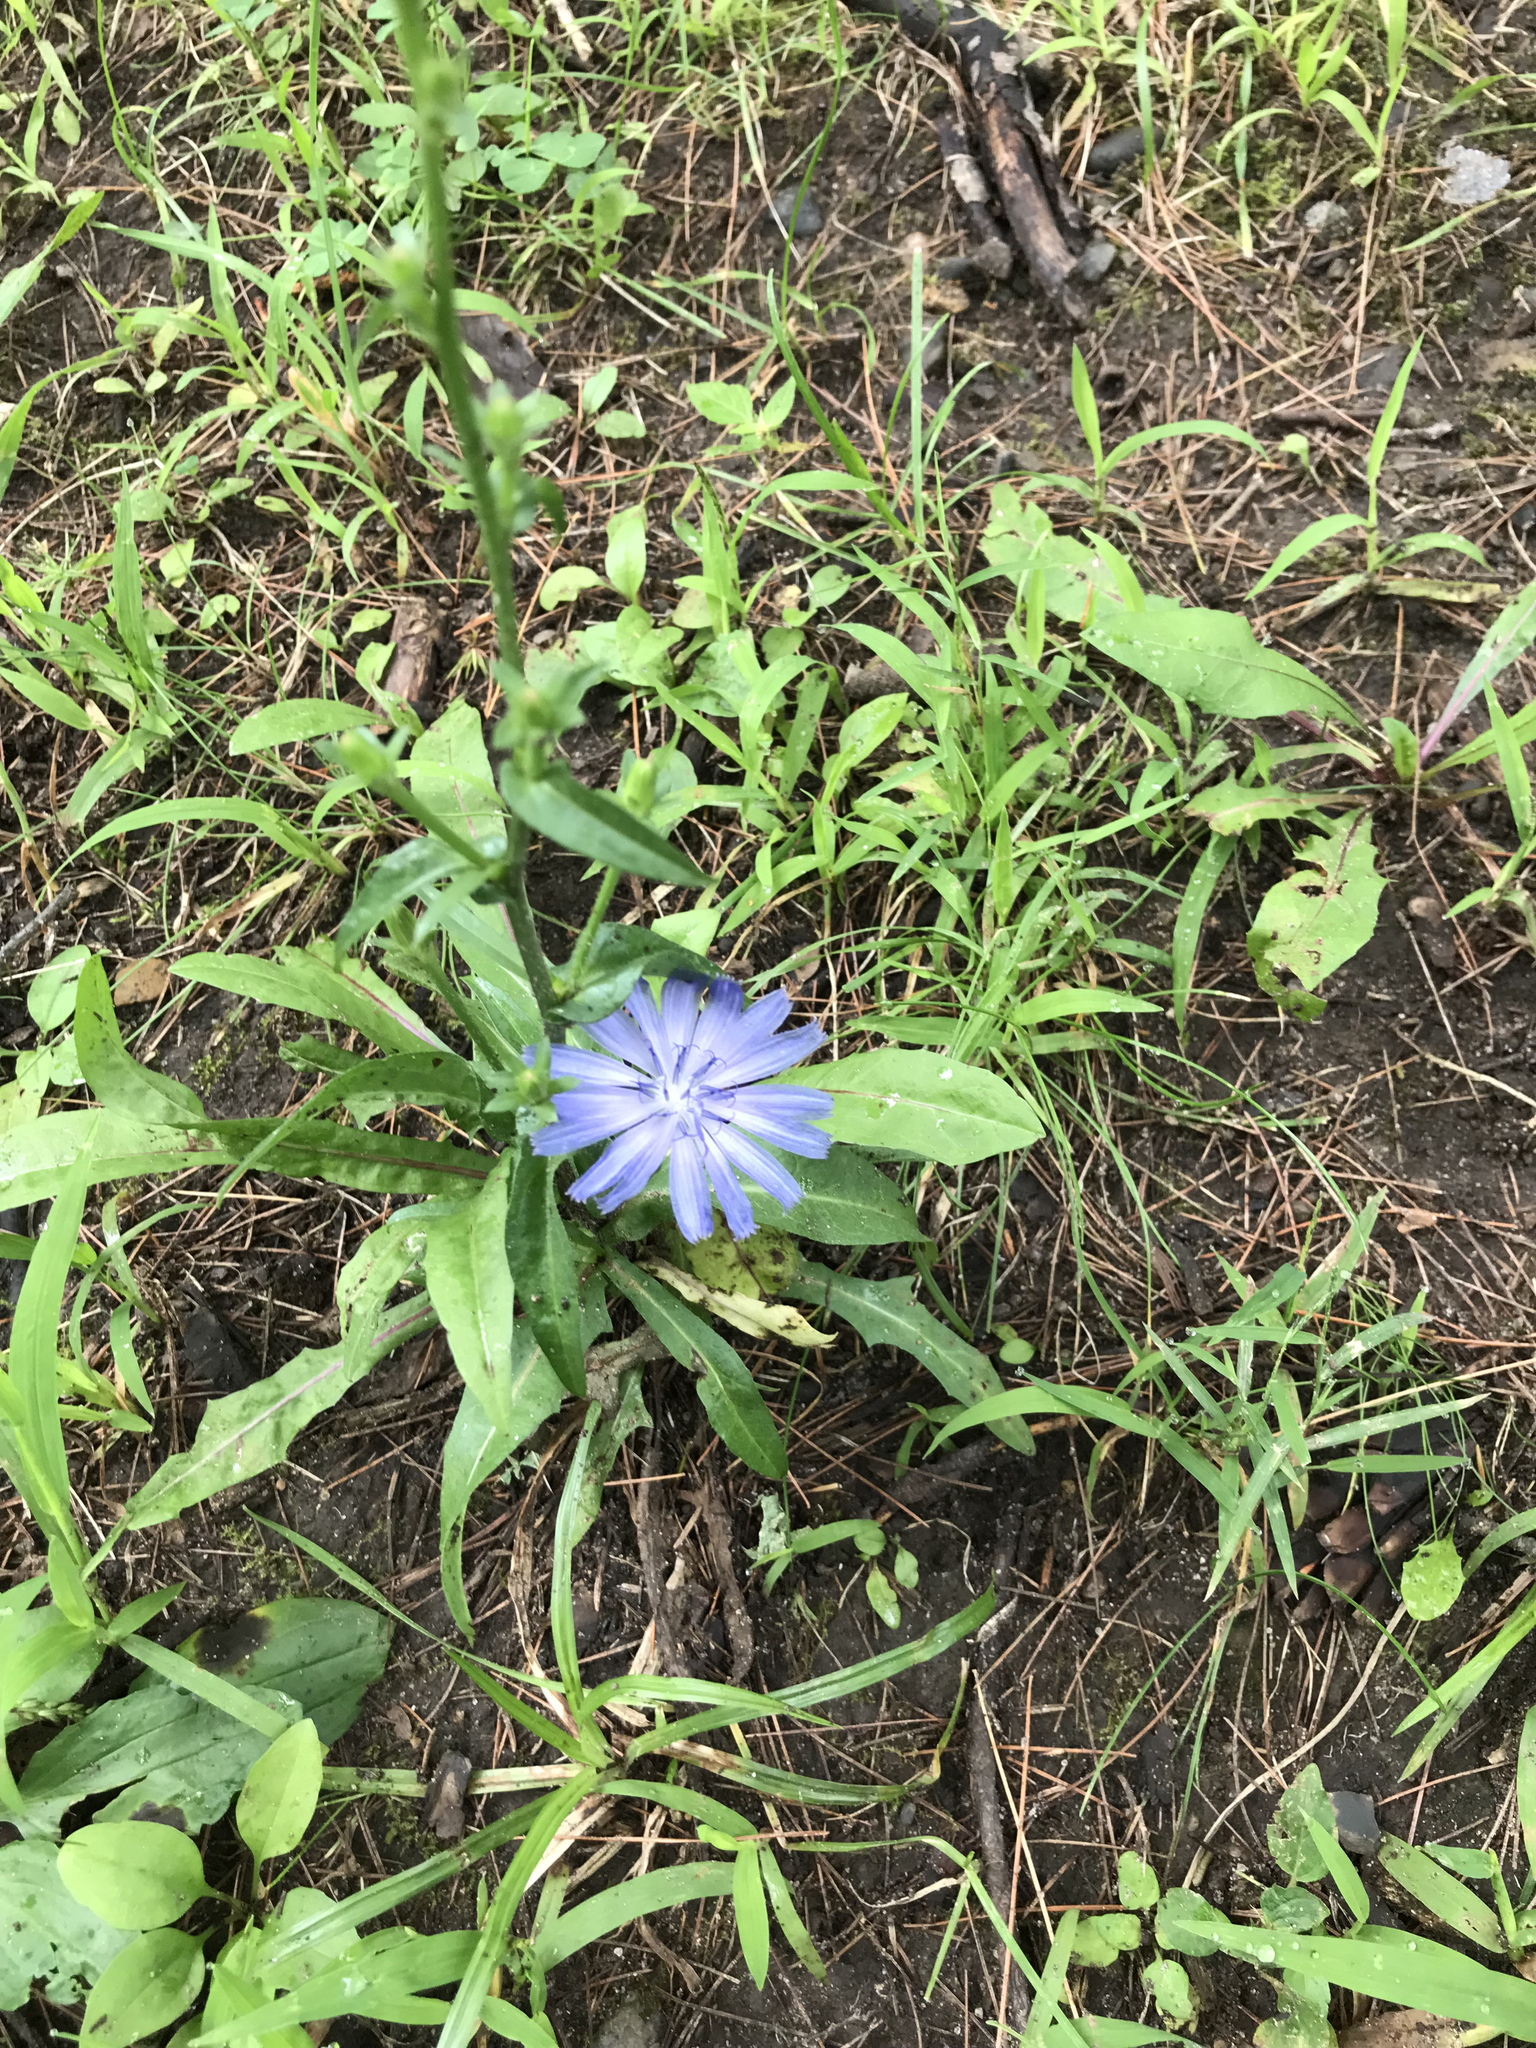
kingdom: Plantae
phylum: Tracheophyta
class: Magnoliopsida
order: Asterales
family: Asteraceae
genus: Cichorium
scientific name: Cichorium intybus
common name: Chicory
